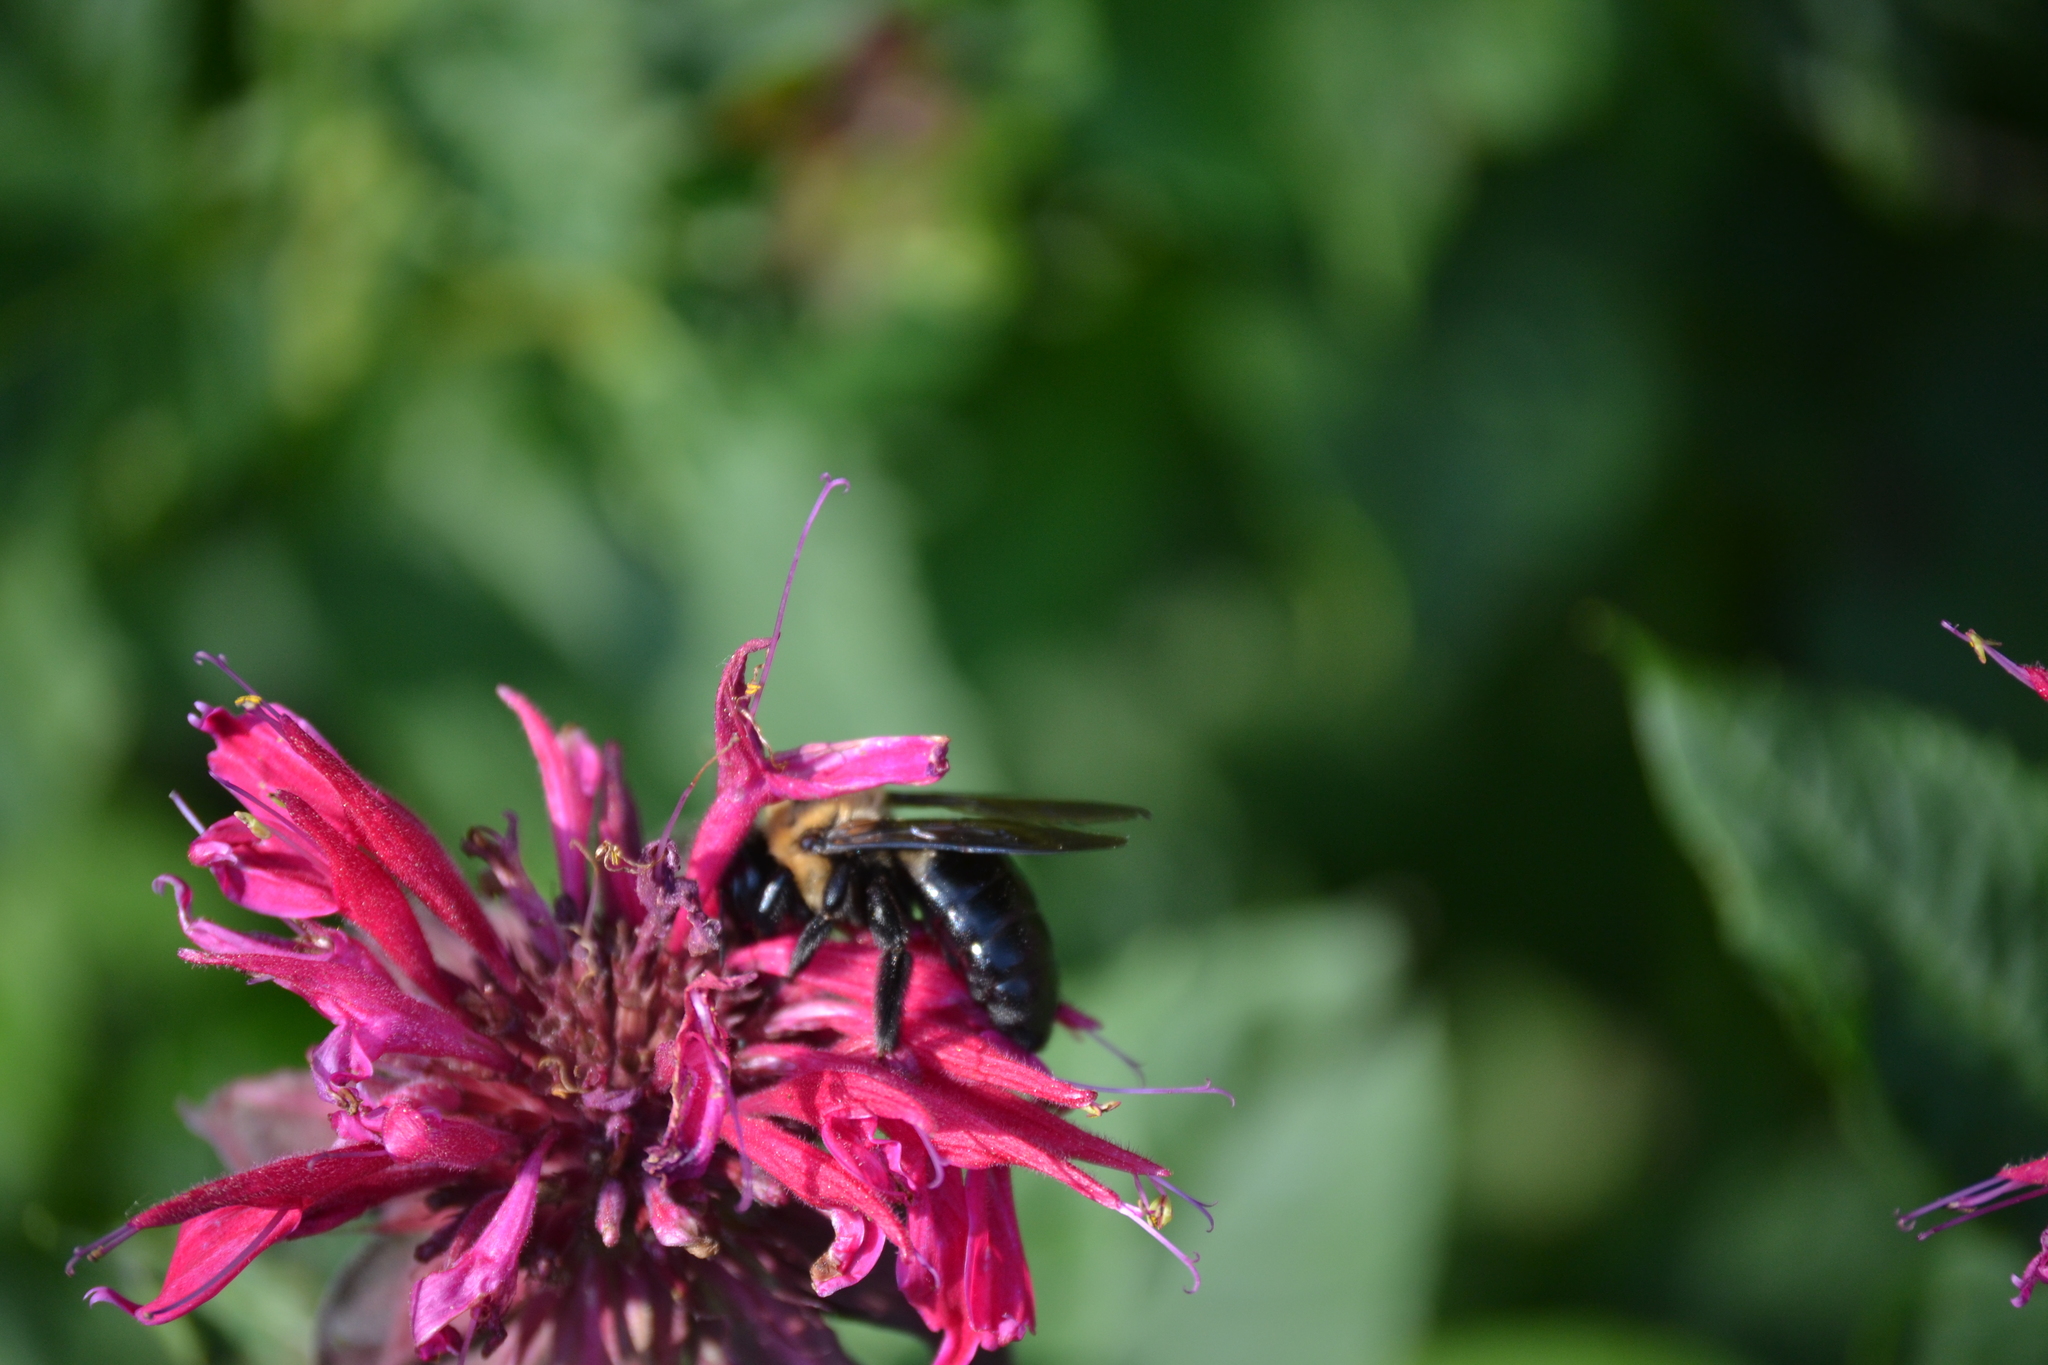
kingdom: Animalia
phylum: Arthropoda
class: Insecta
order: Hymenoptera
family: Apidae
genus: Xylocopa
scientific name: Xylocopa virginica
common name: Carpenter bee
